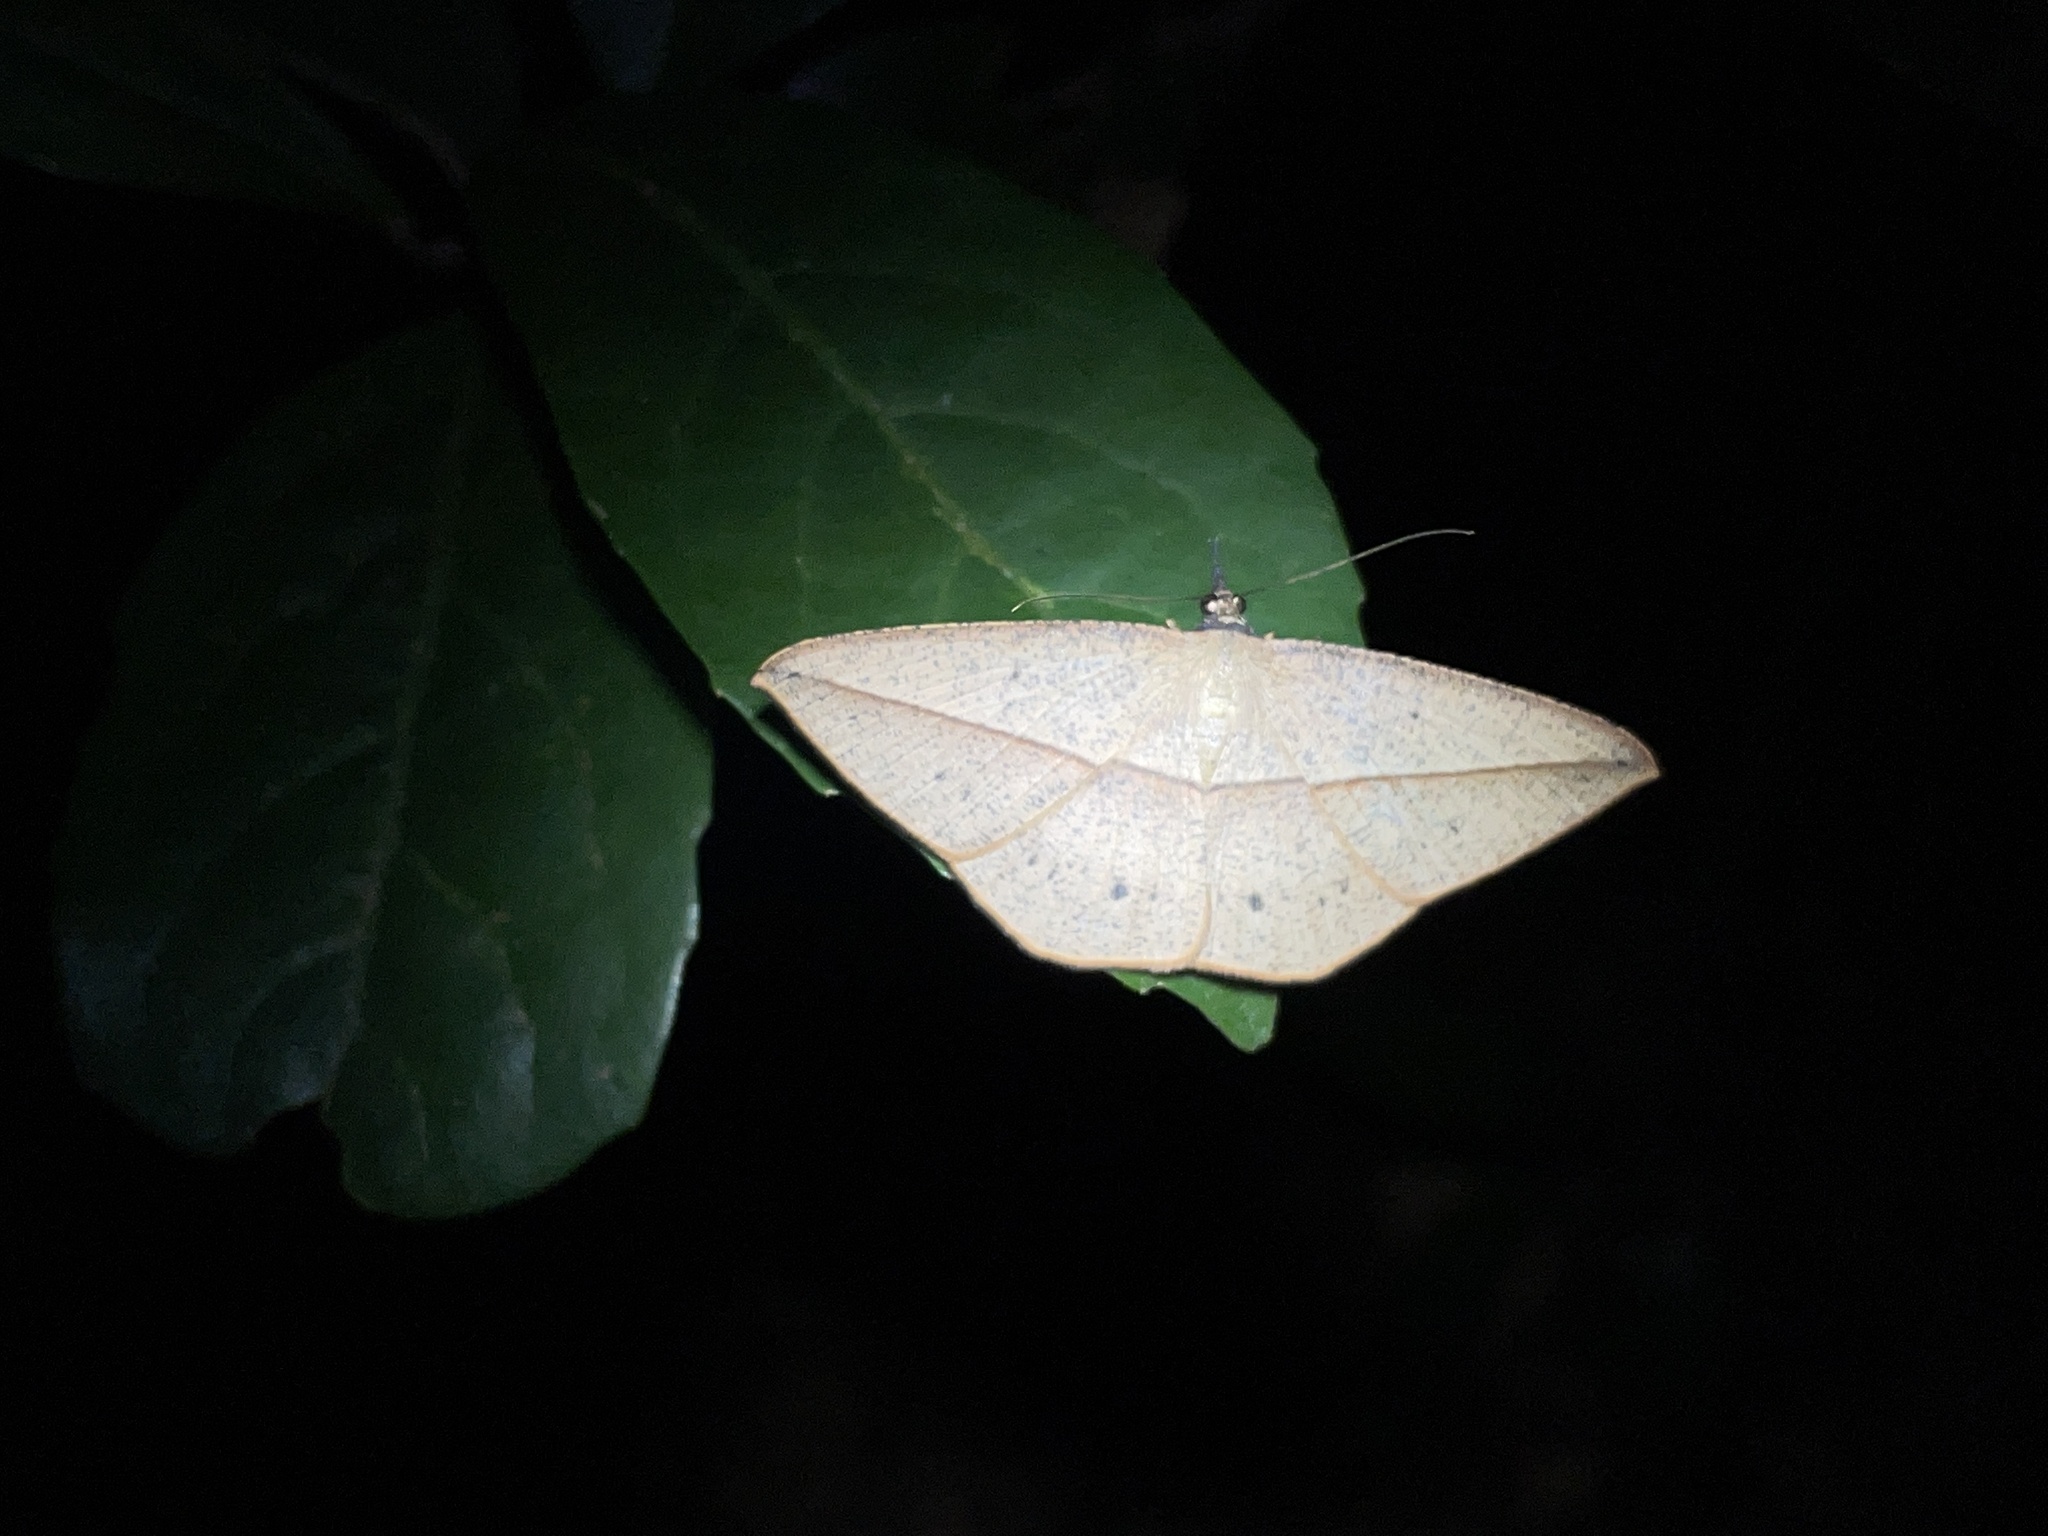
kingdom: Animalia
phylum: Arthropoda
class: Insecta
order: Lepidoptera
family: Geometridae
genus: Alex
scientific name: Alex palparia
